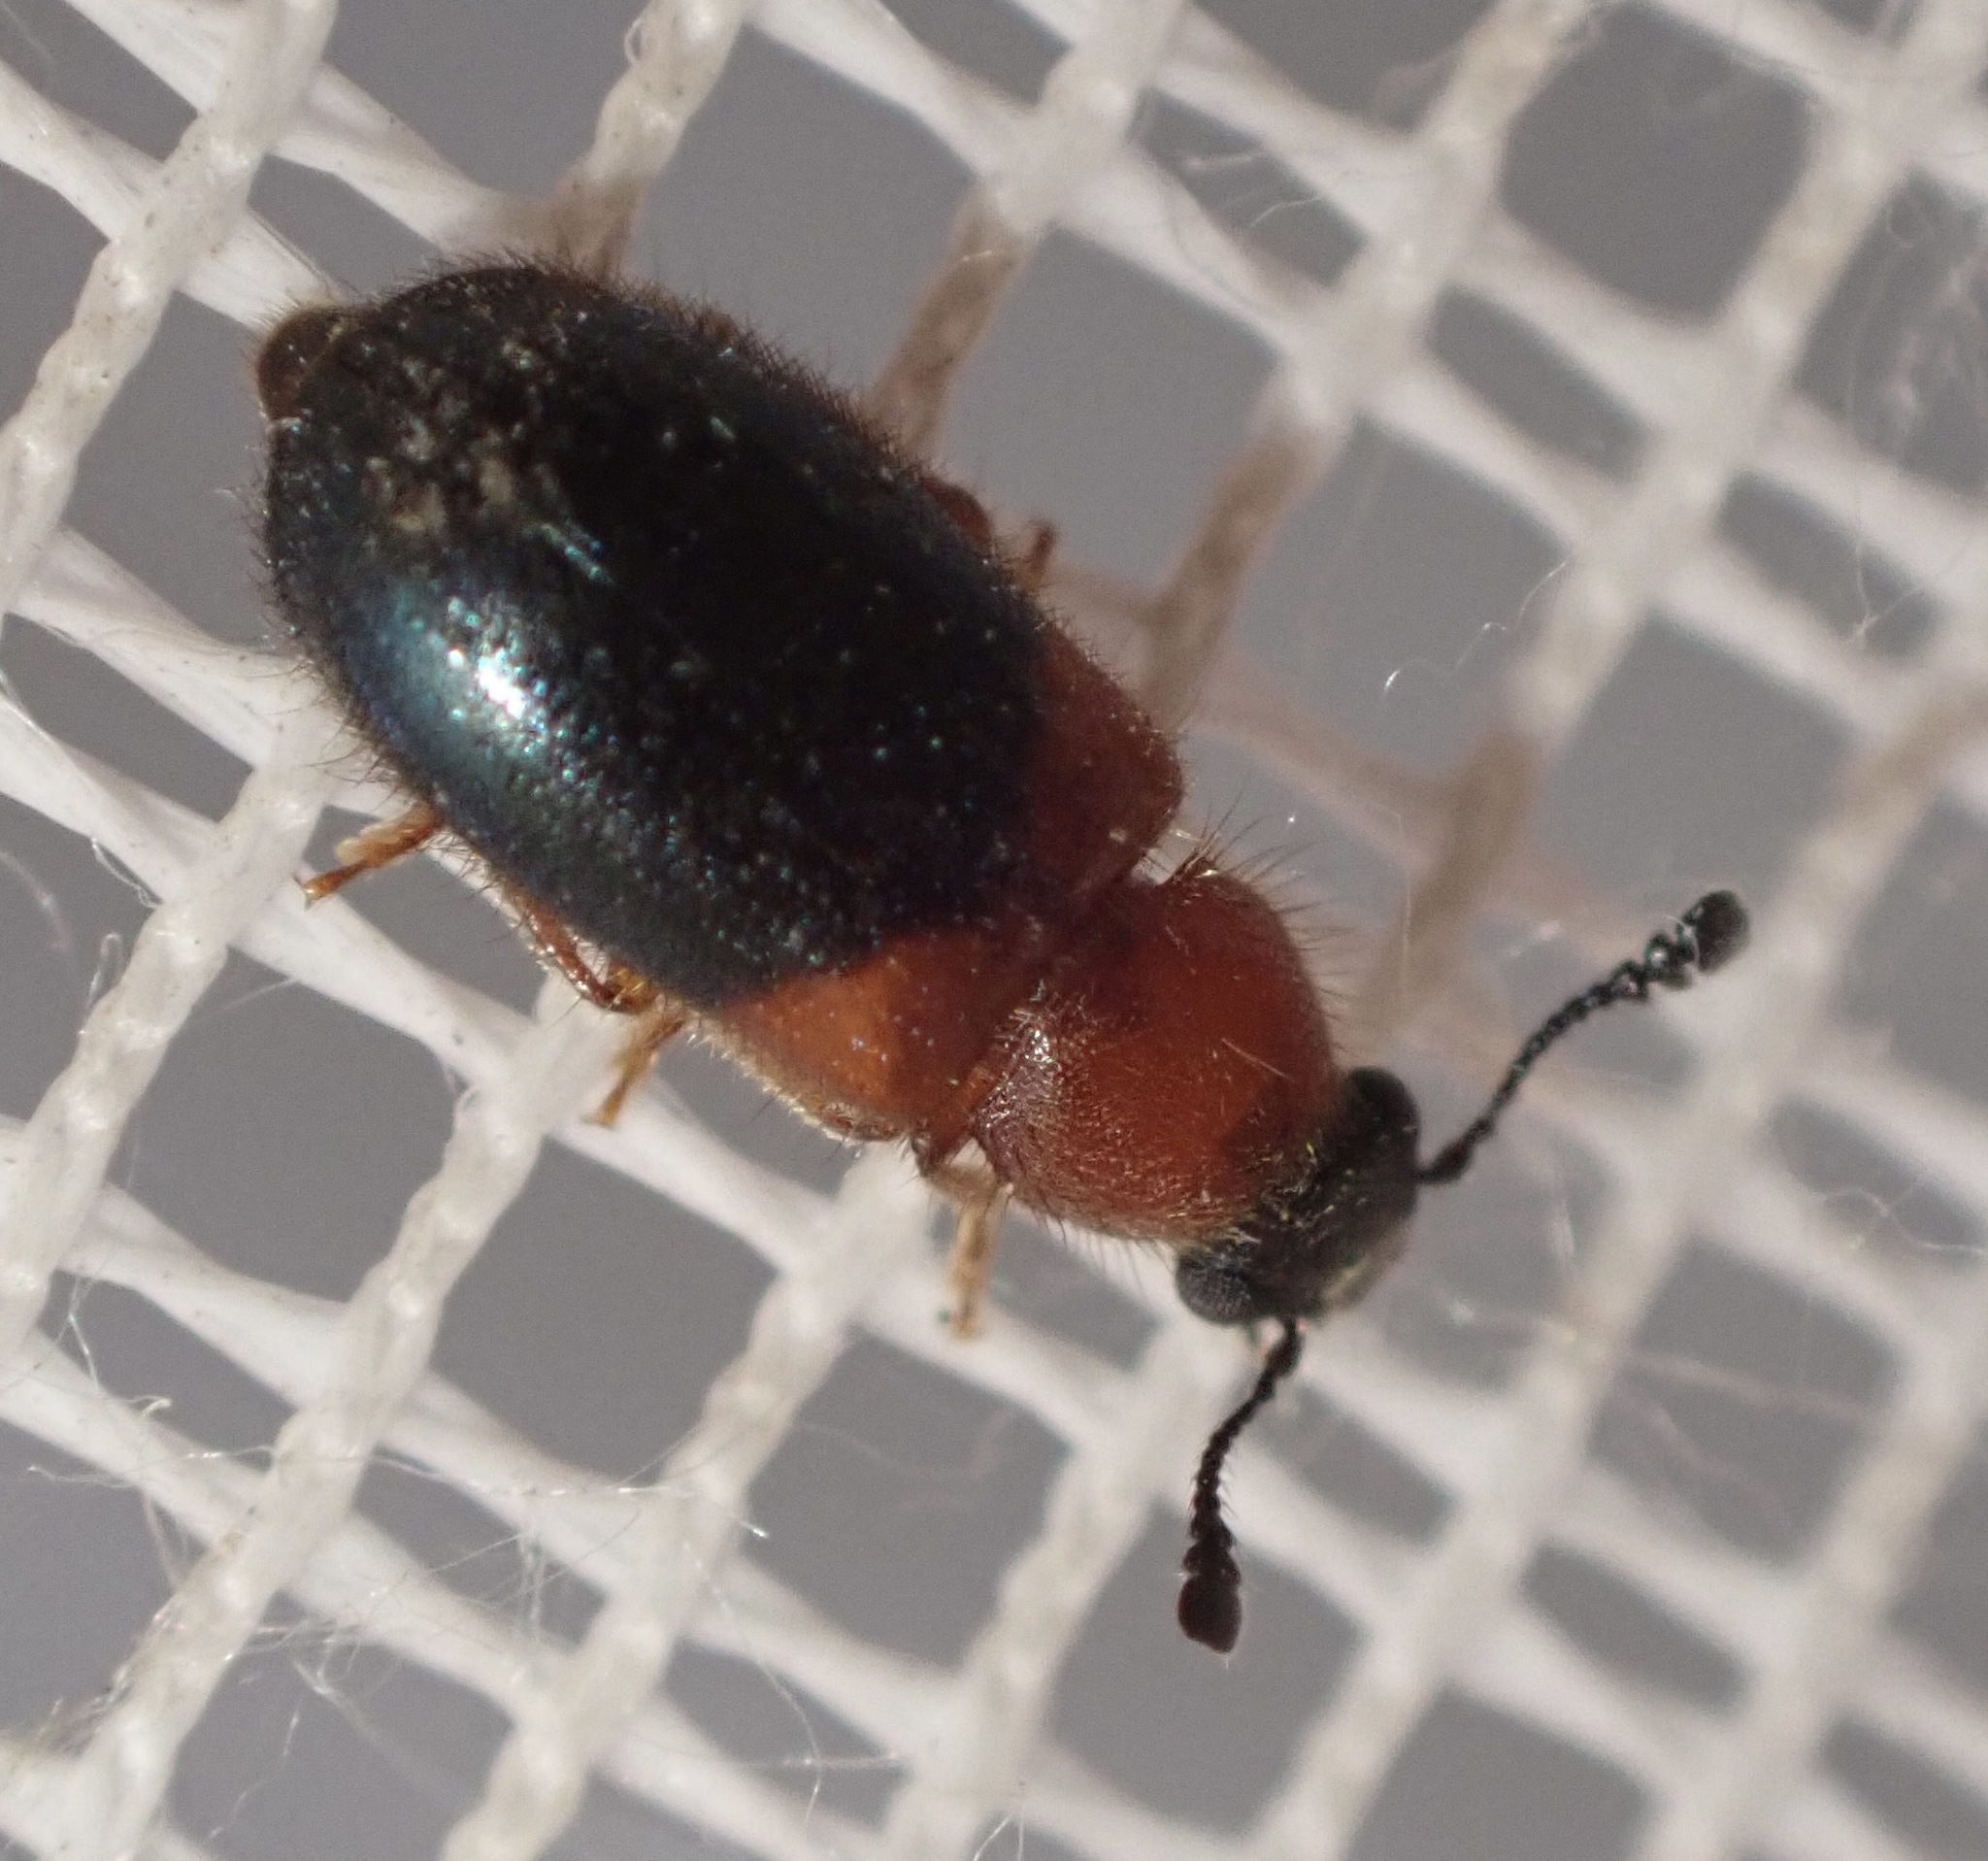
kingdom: Animalia
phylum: Arthropoda
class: Insecta
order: Coleoptera
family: Cleridae
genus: Necrobia
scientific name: Necrobia ruficollis
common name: Redshouldered ham beetle
